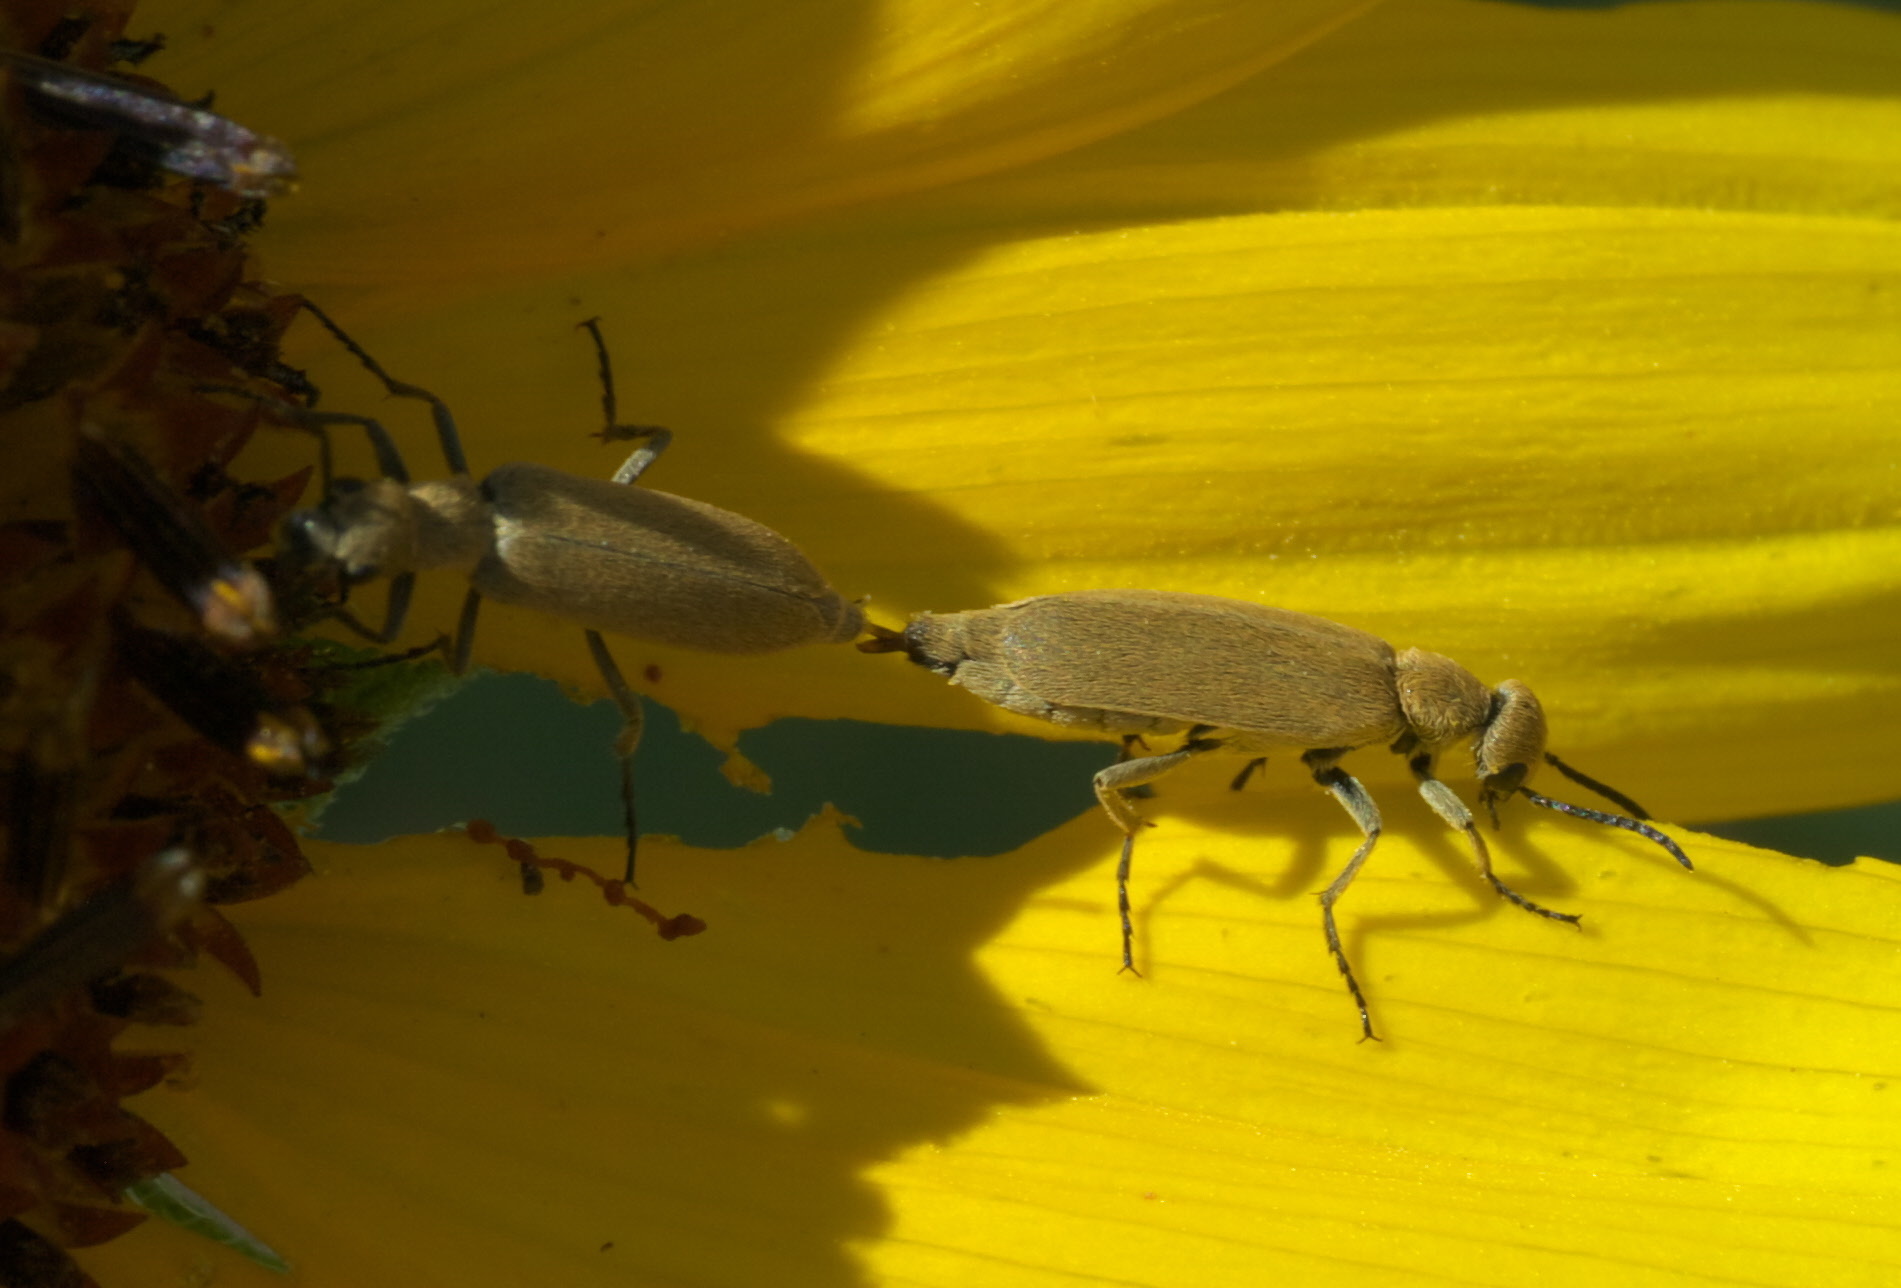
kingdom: Animalia
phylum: Arthropoda
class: Insecta
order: Coleoptera
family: Meloidae
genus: Epicauta
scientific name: Epicauta ferruginea
